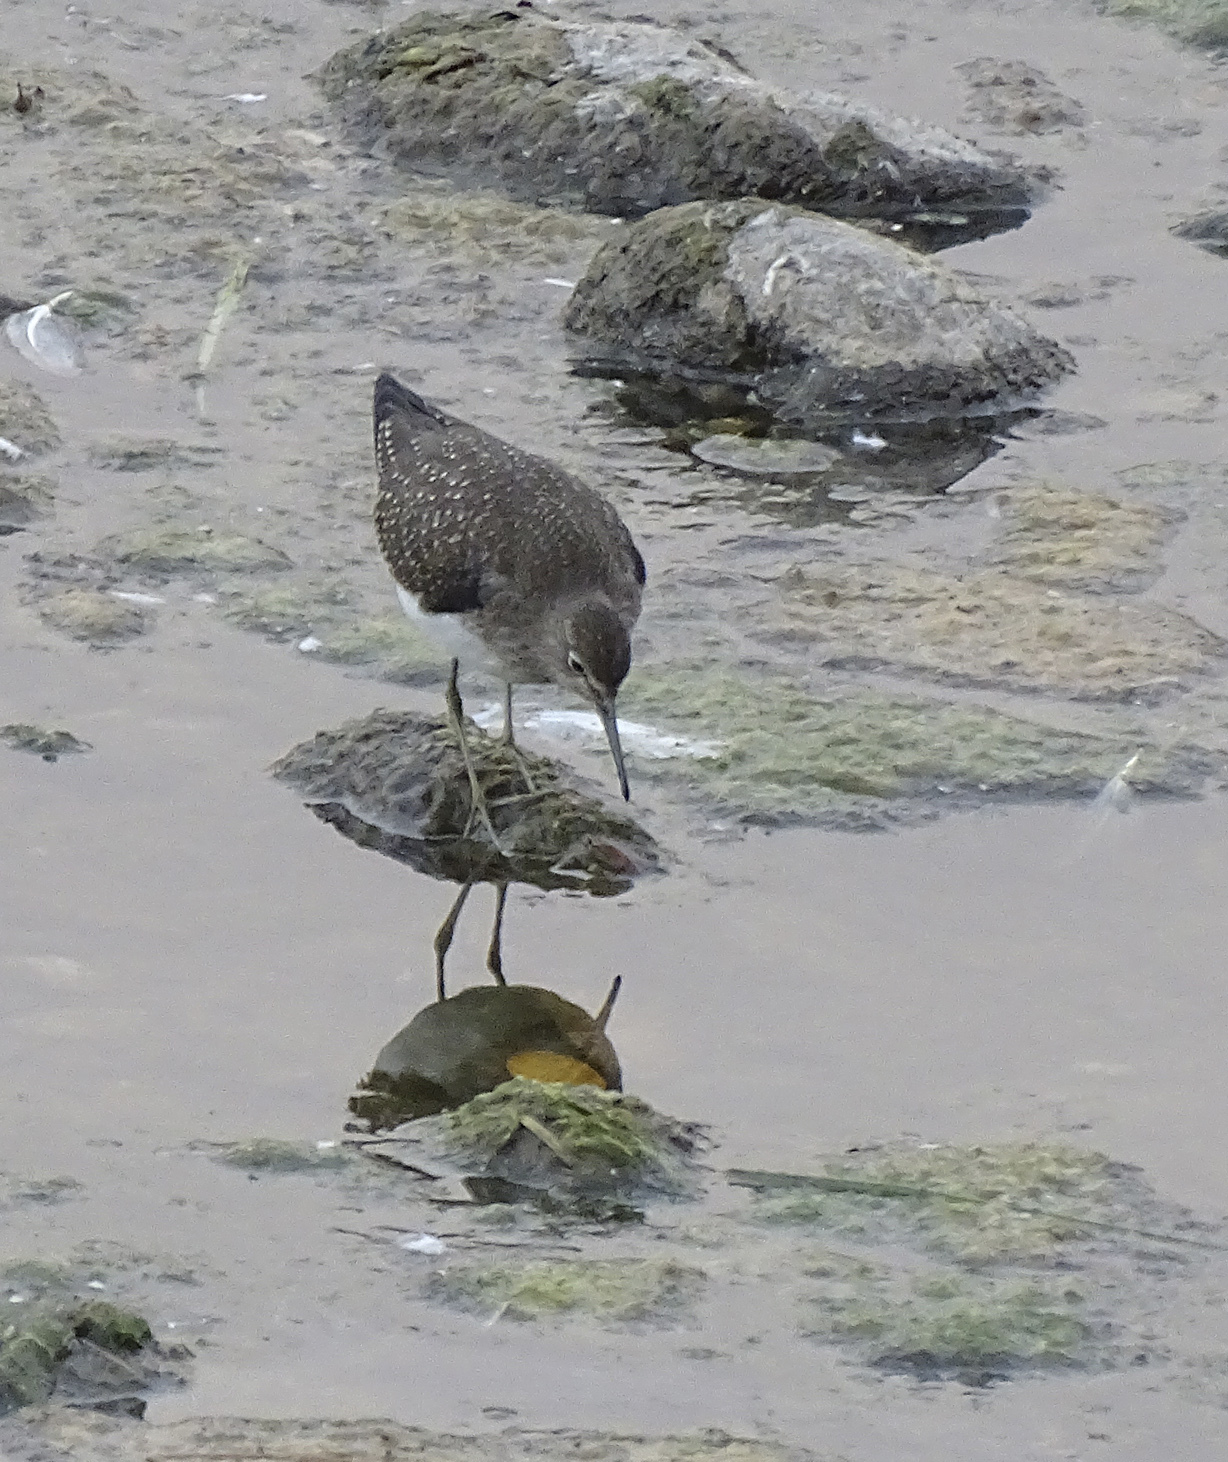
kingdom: Animalia
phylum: Chordata
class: Aves
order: Charadriiformes
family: Scolopacidae
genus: Tringa
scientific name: Tringa solitaria
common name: Solitary sandpiper
